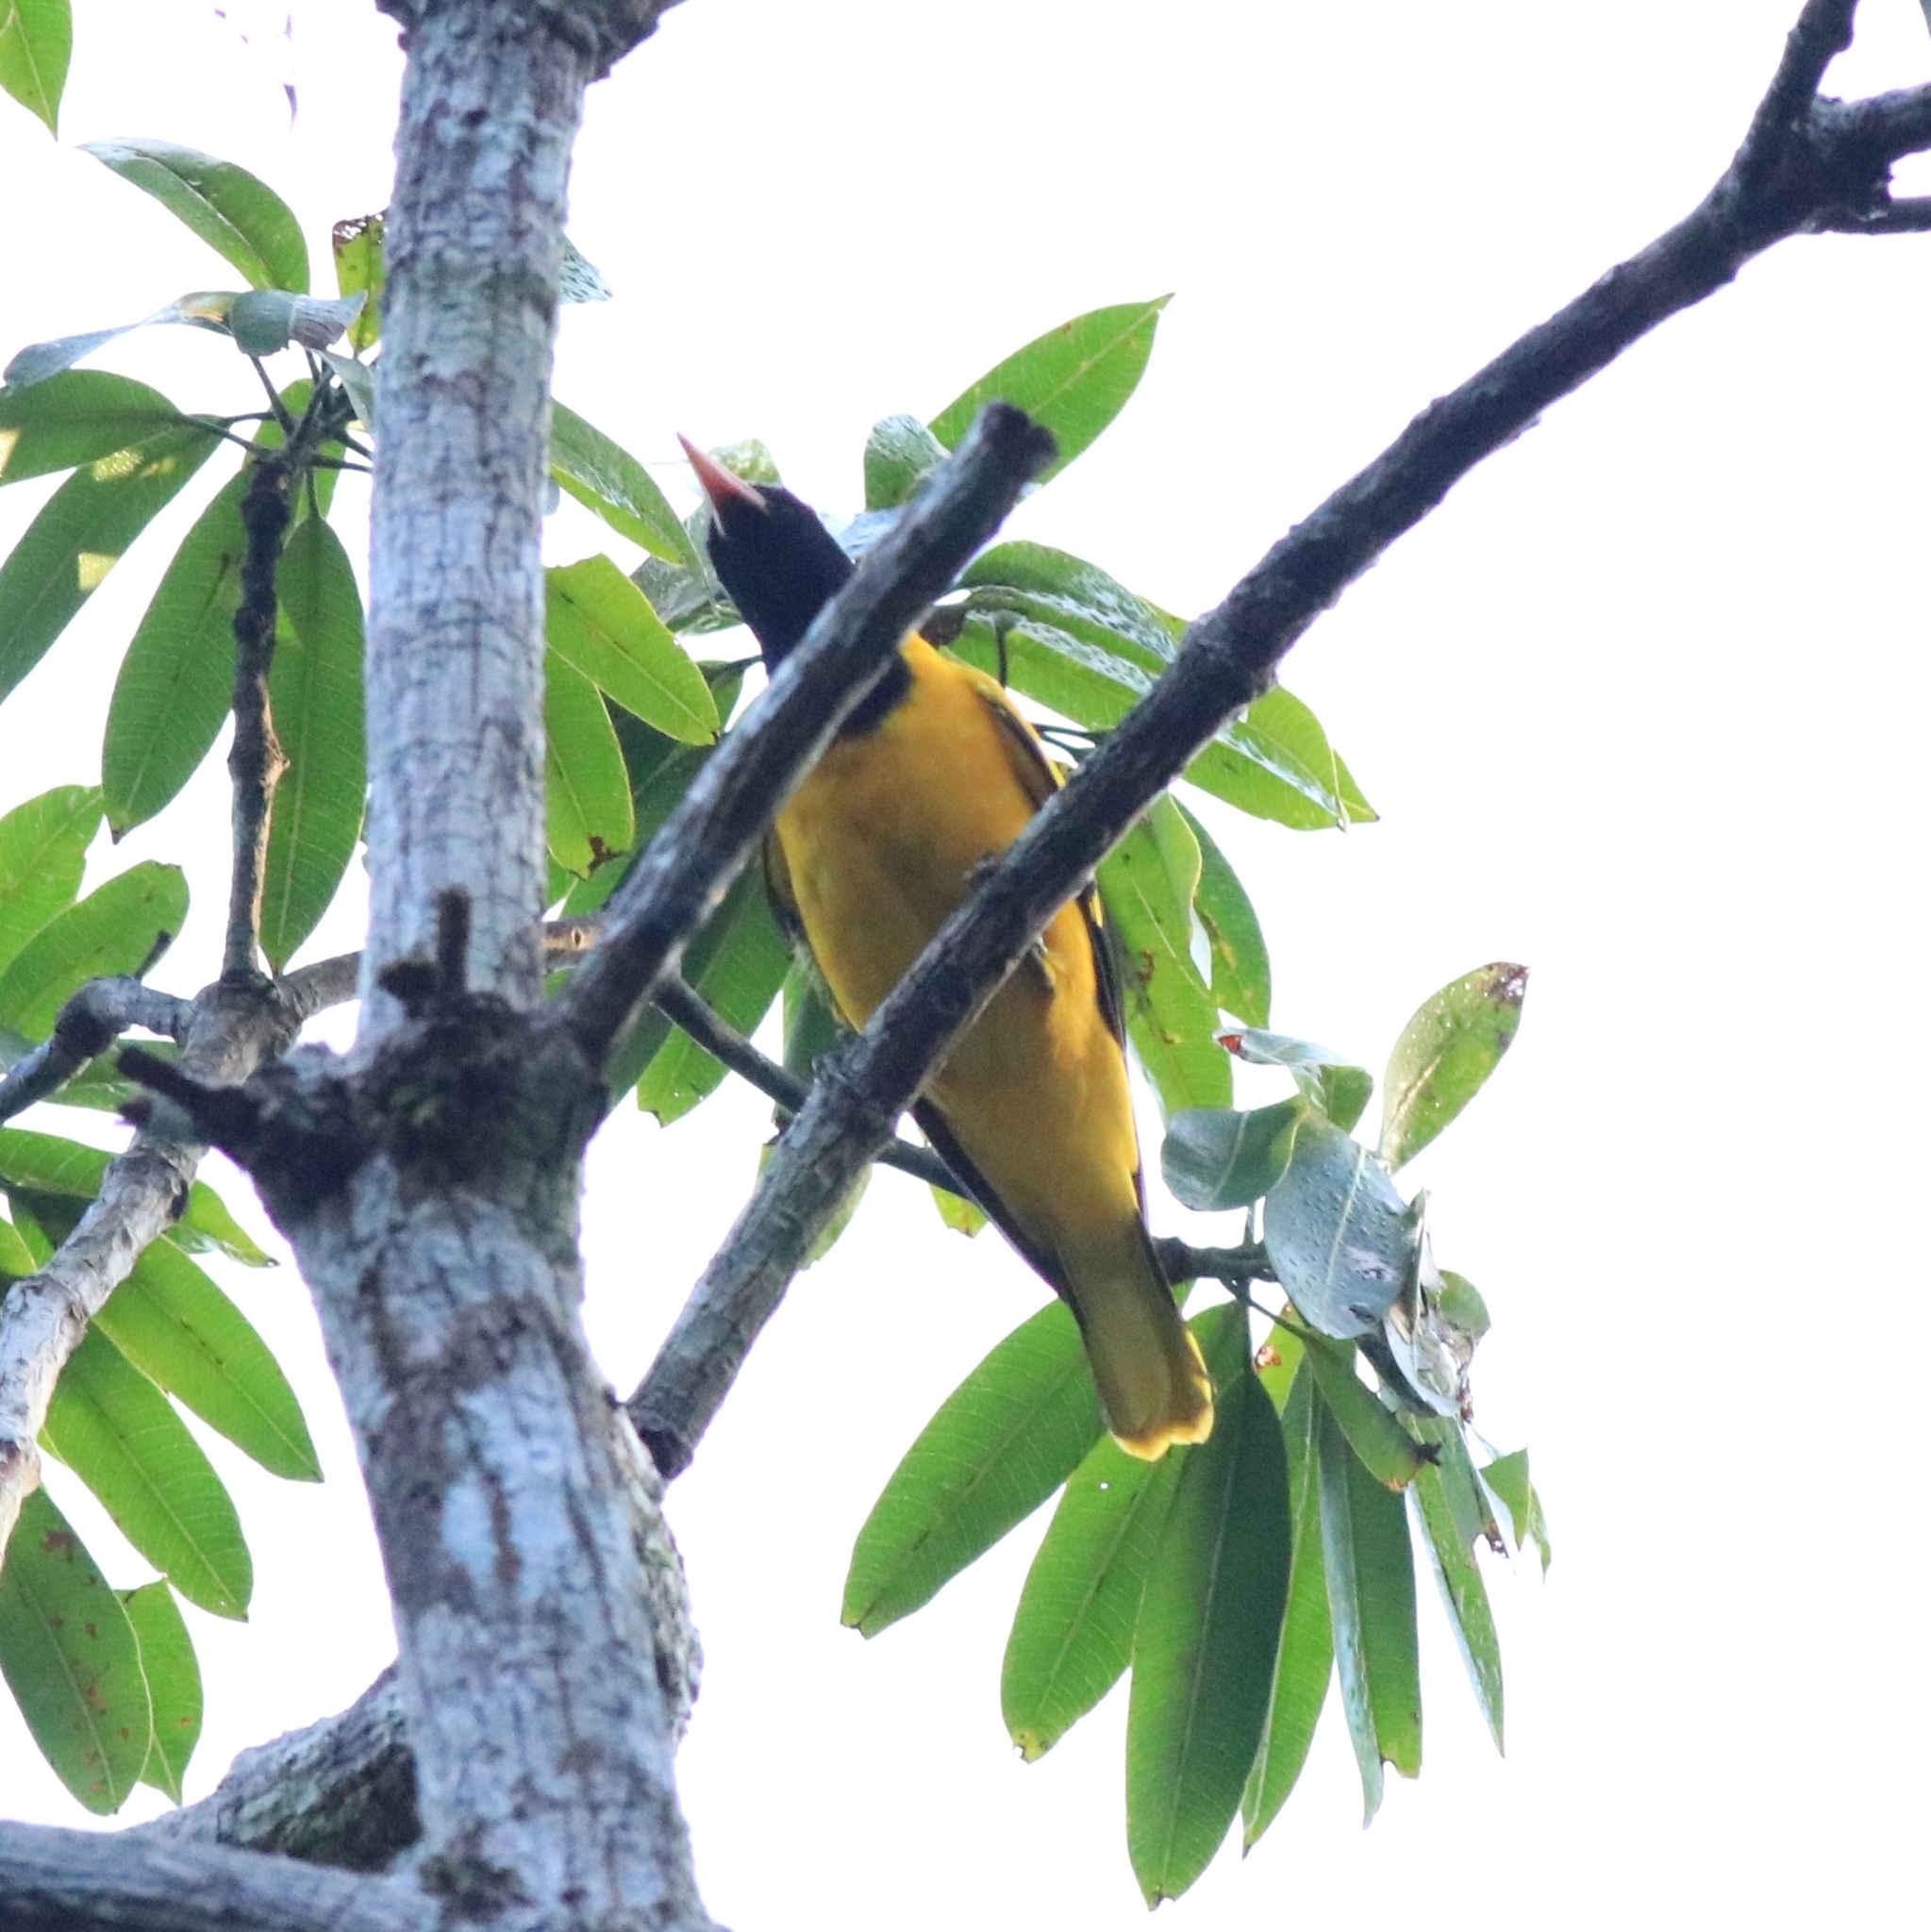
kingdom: Animalia
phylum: Chordata
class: Aves
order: Passeriformes
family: Oriolidae
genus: Oriolus
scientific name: Oriolus xanthornus
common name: Black-hooded oriole
